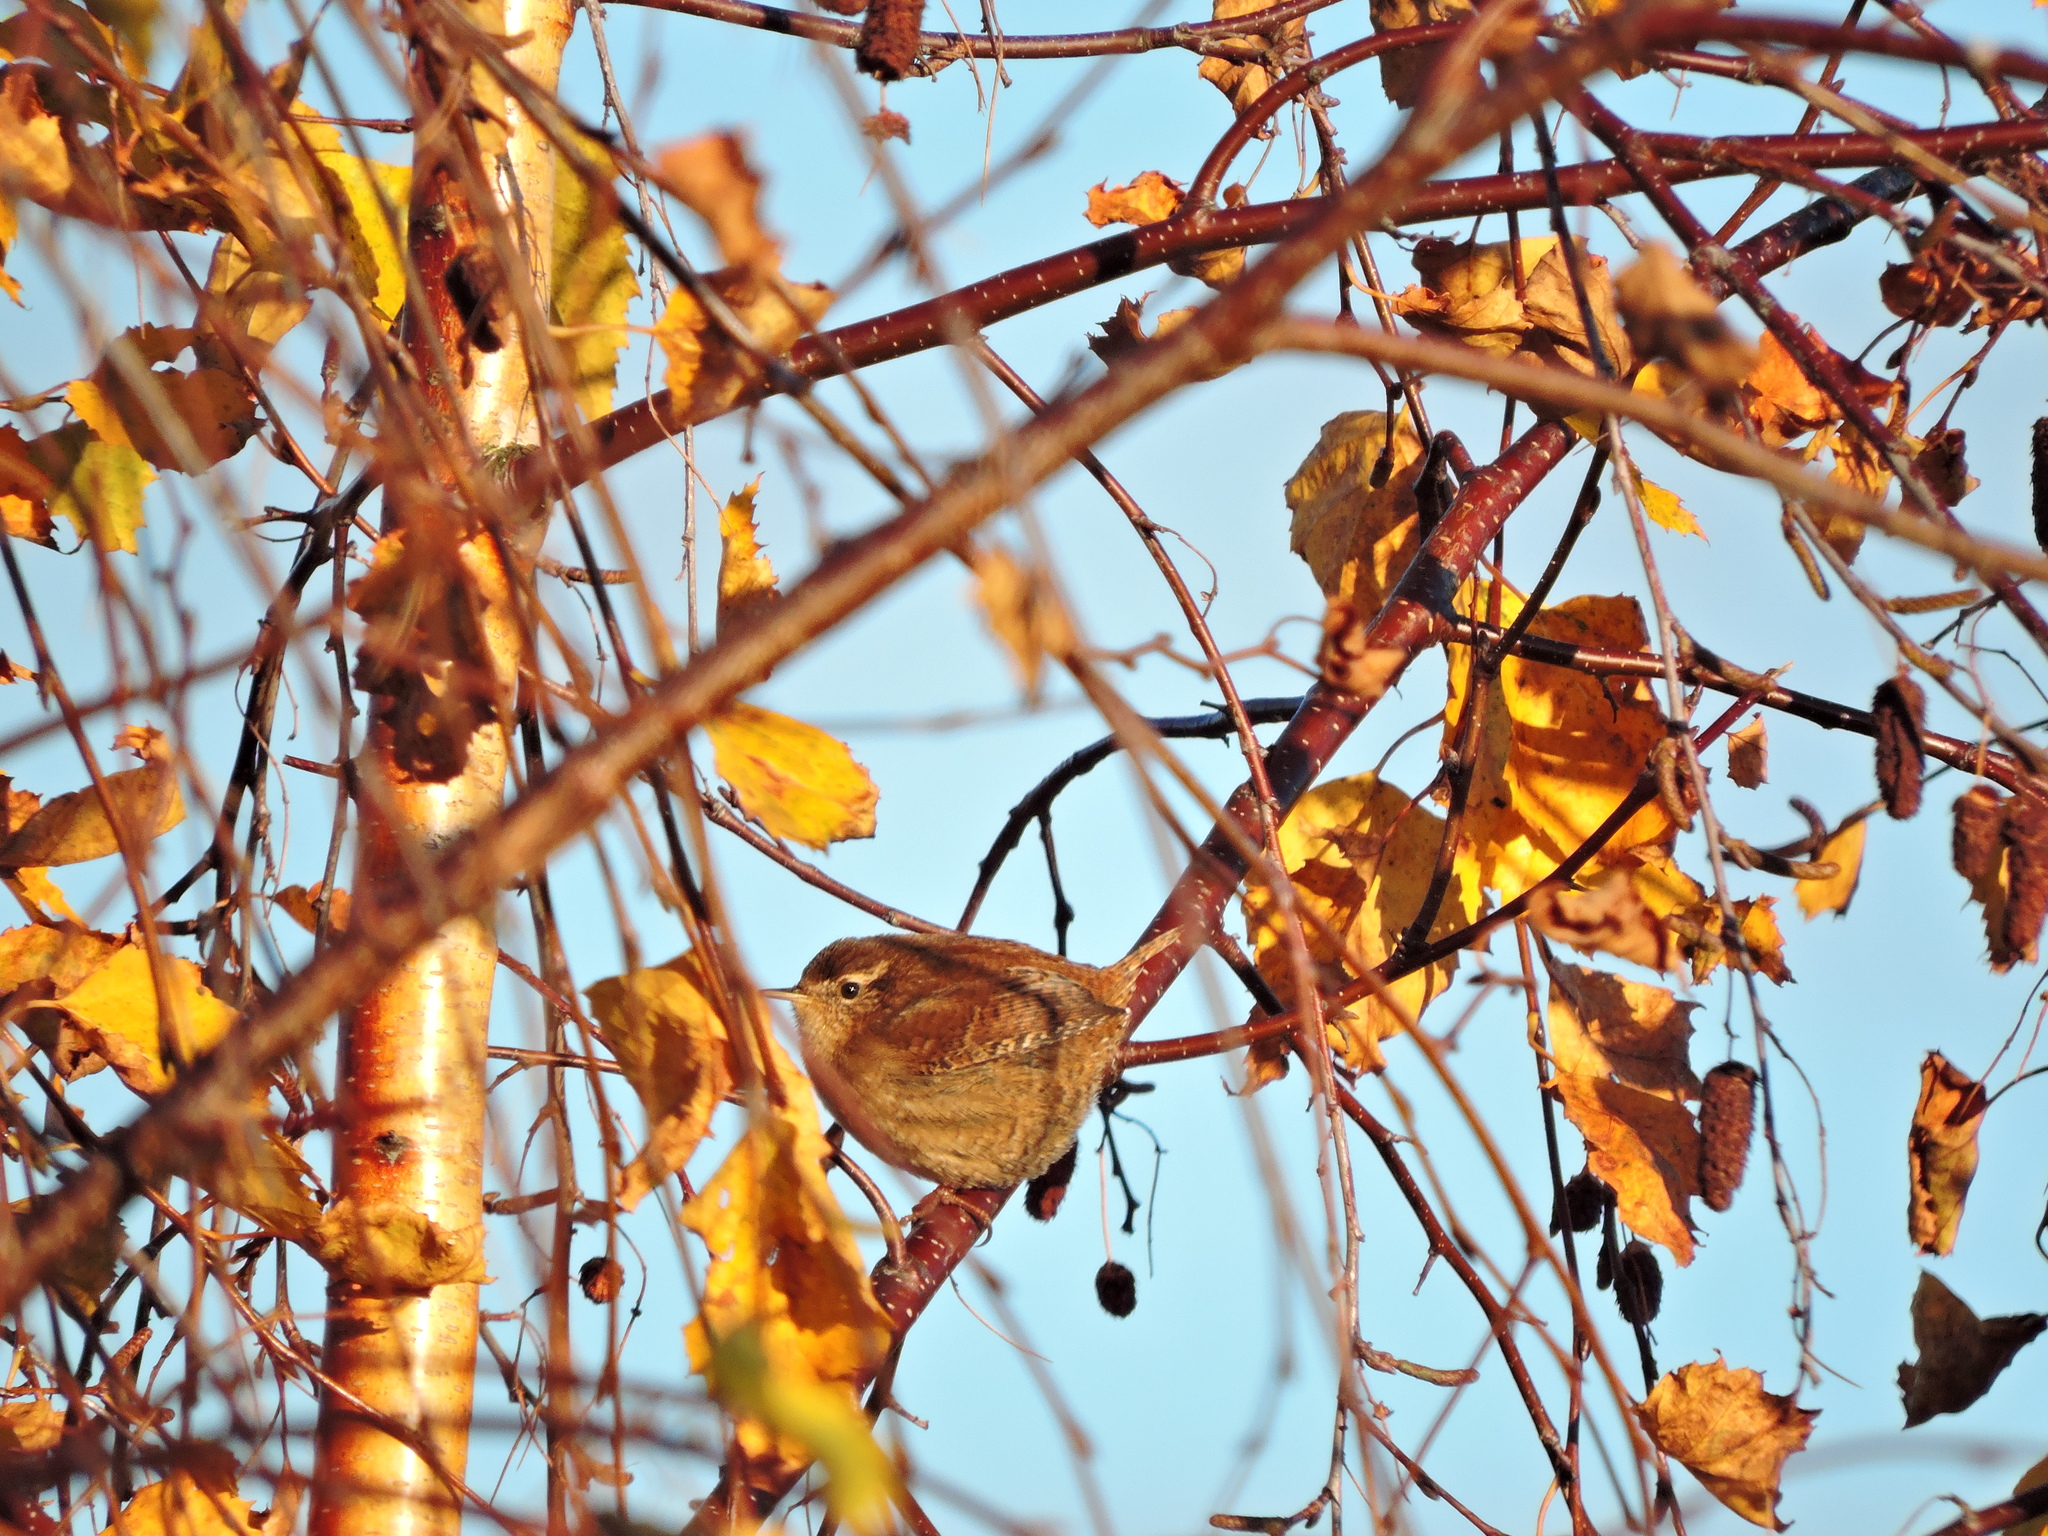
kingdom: Animalia
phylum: Chordata
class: Aves
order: Passeriformes
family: Troglodytidae
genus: Troglodytes
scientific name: Troglodytes troglodytes
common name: Eurasian wren
